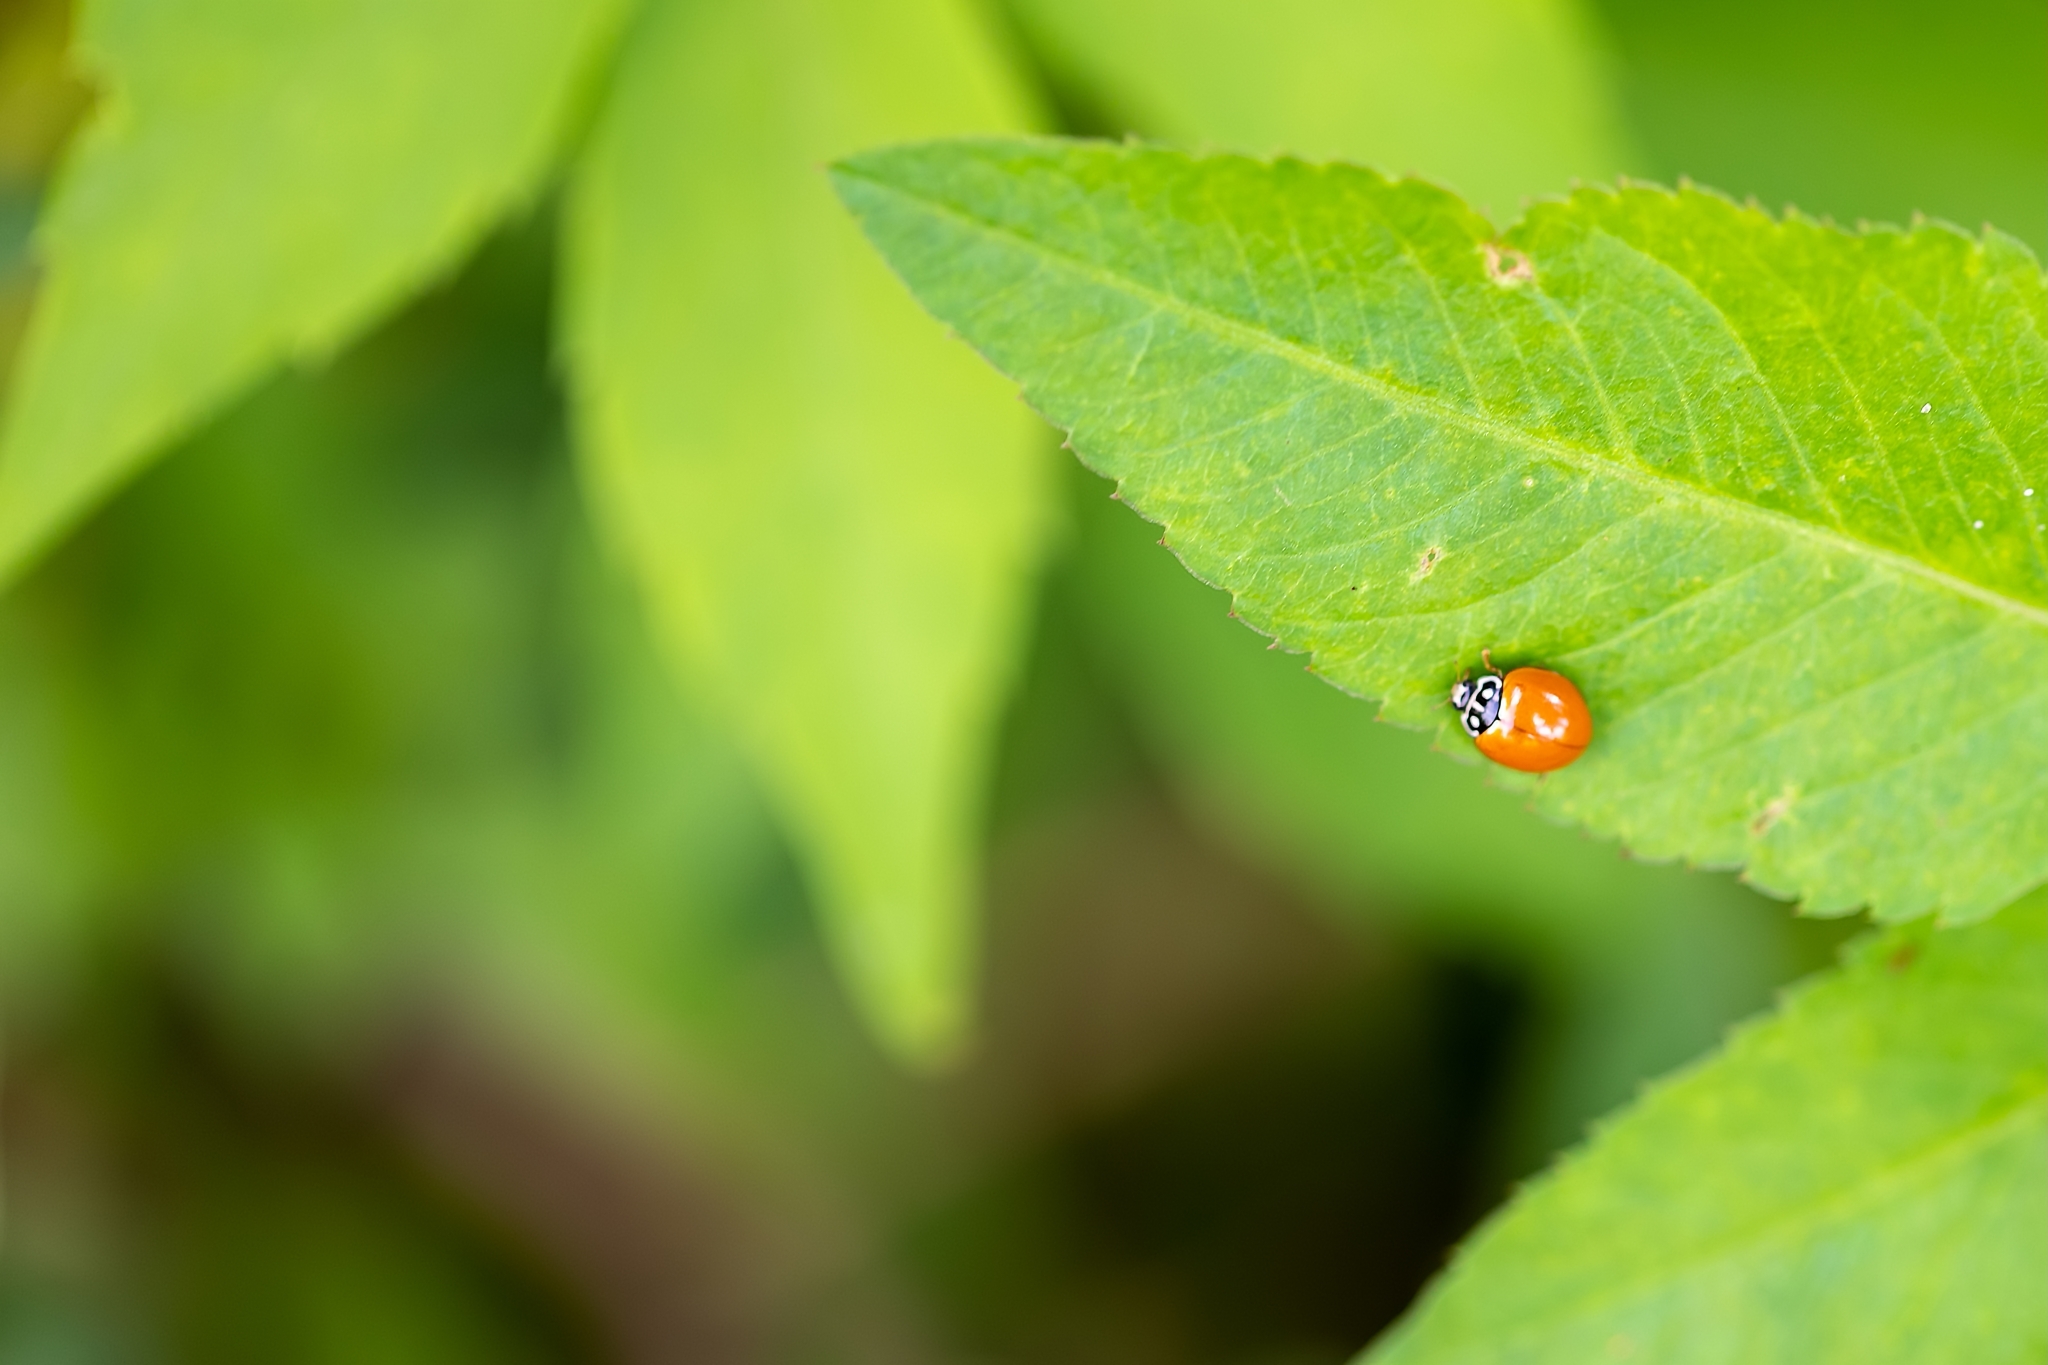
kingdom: Animalia
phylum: Arthropoda
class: Insecta
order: Coleoptera
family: Coccinellidae
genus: Cycloneda
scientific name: Cycloneda sanguinea
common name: Ladybird beetle
